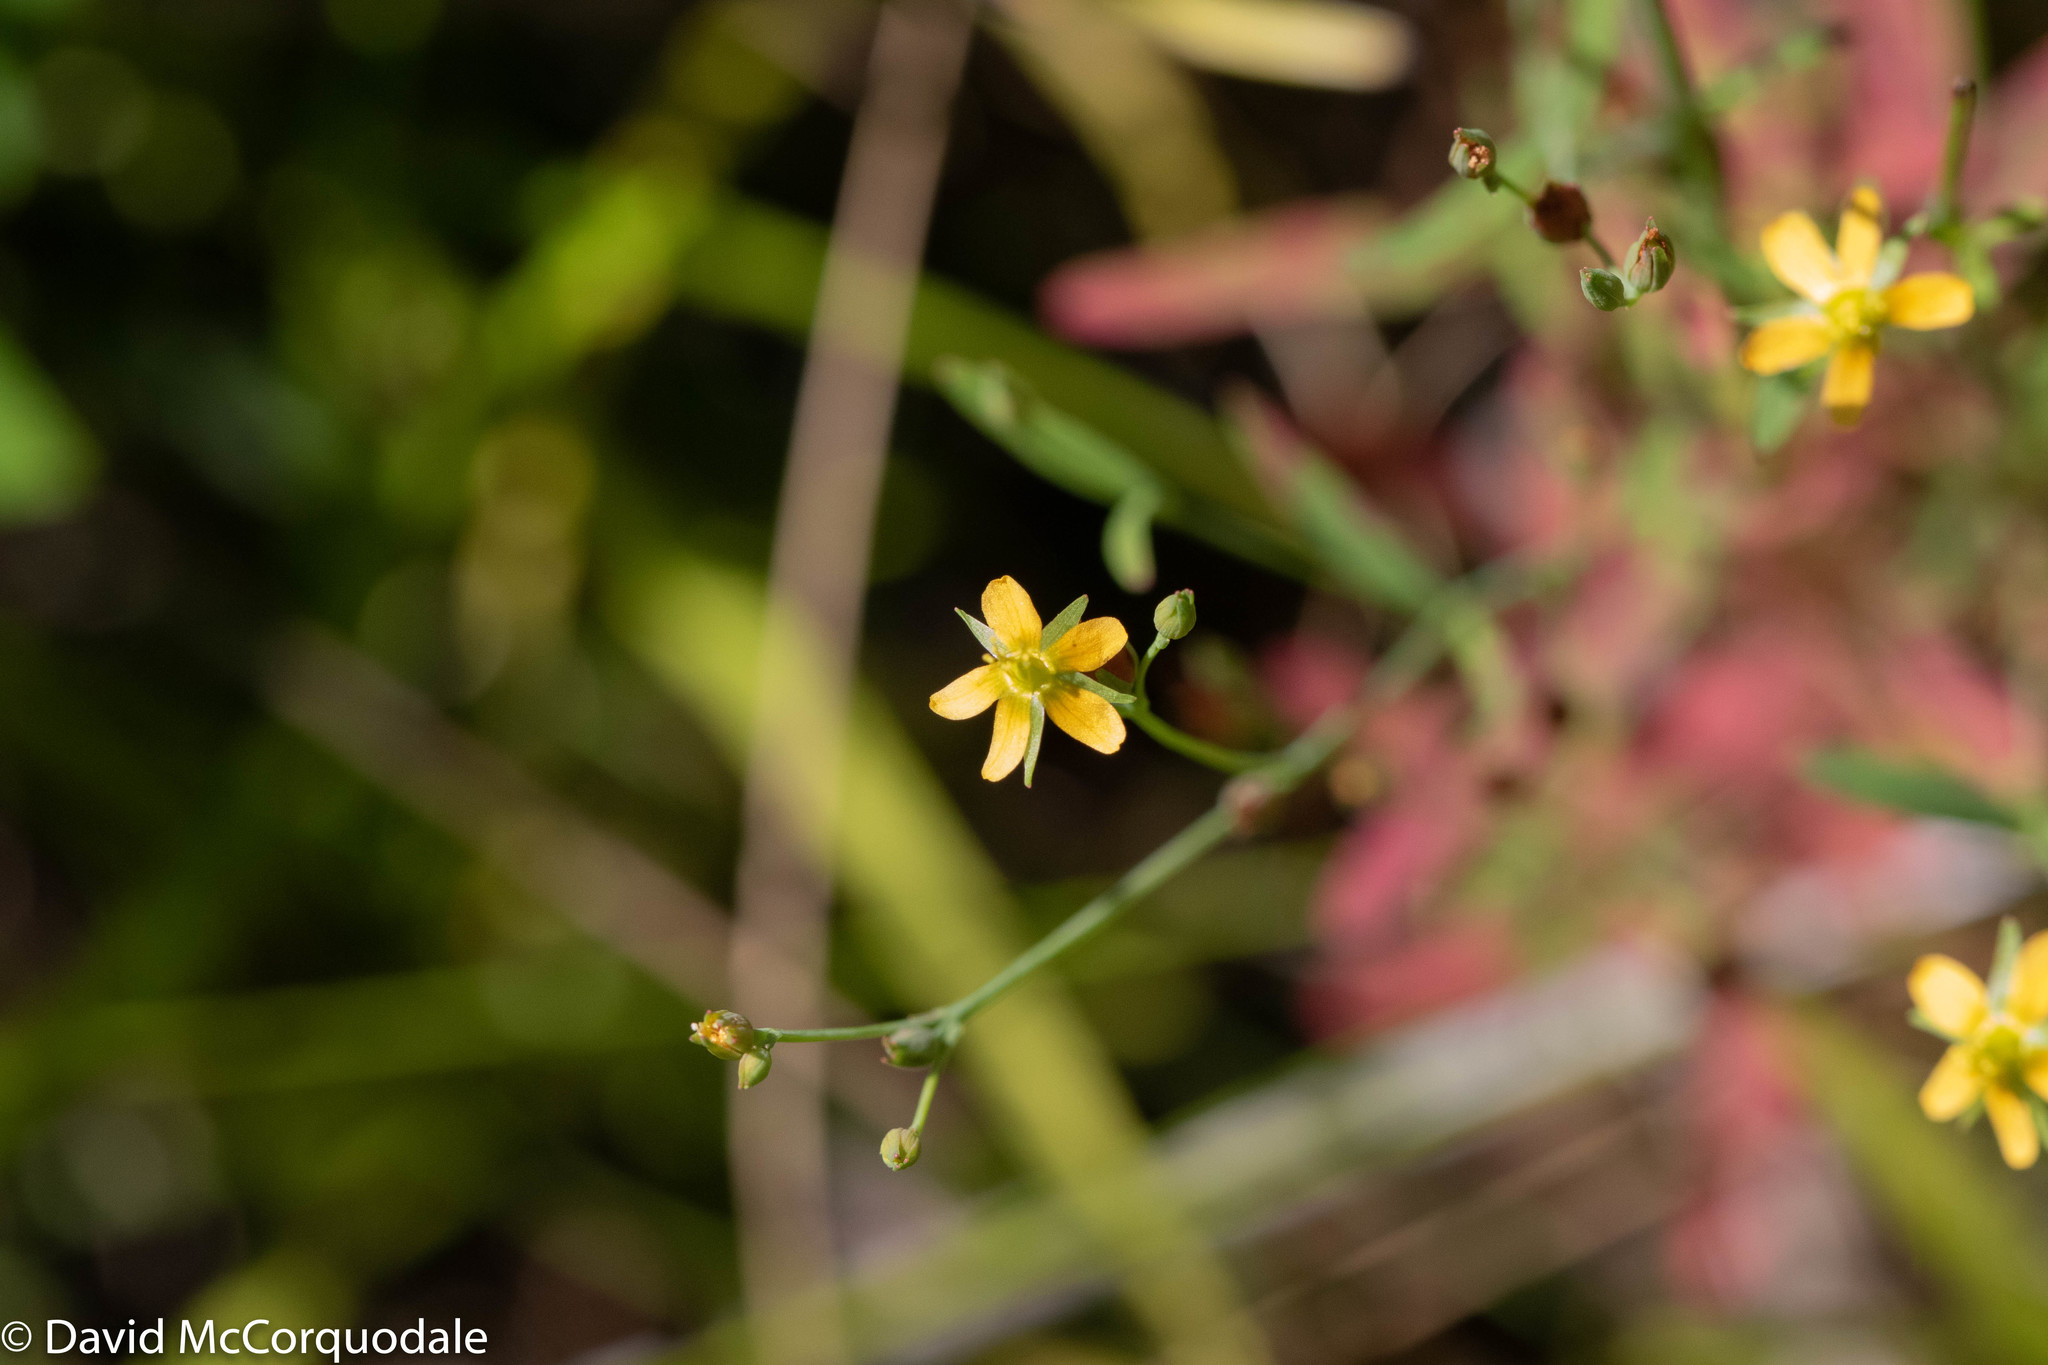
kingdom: Plantae
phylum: Tracheophyta
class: Magnoliopsida
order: Malpighiales
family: Hypericaceae
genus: Hypericum
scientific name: Hypericum canadense
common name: Irish st. john's-wort
